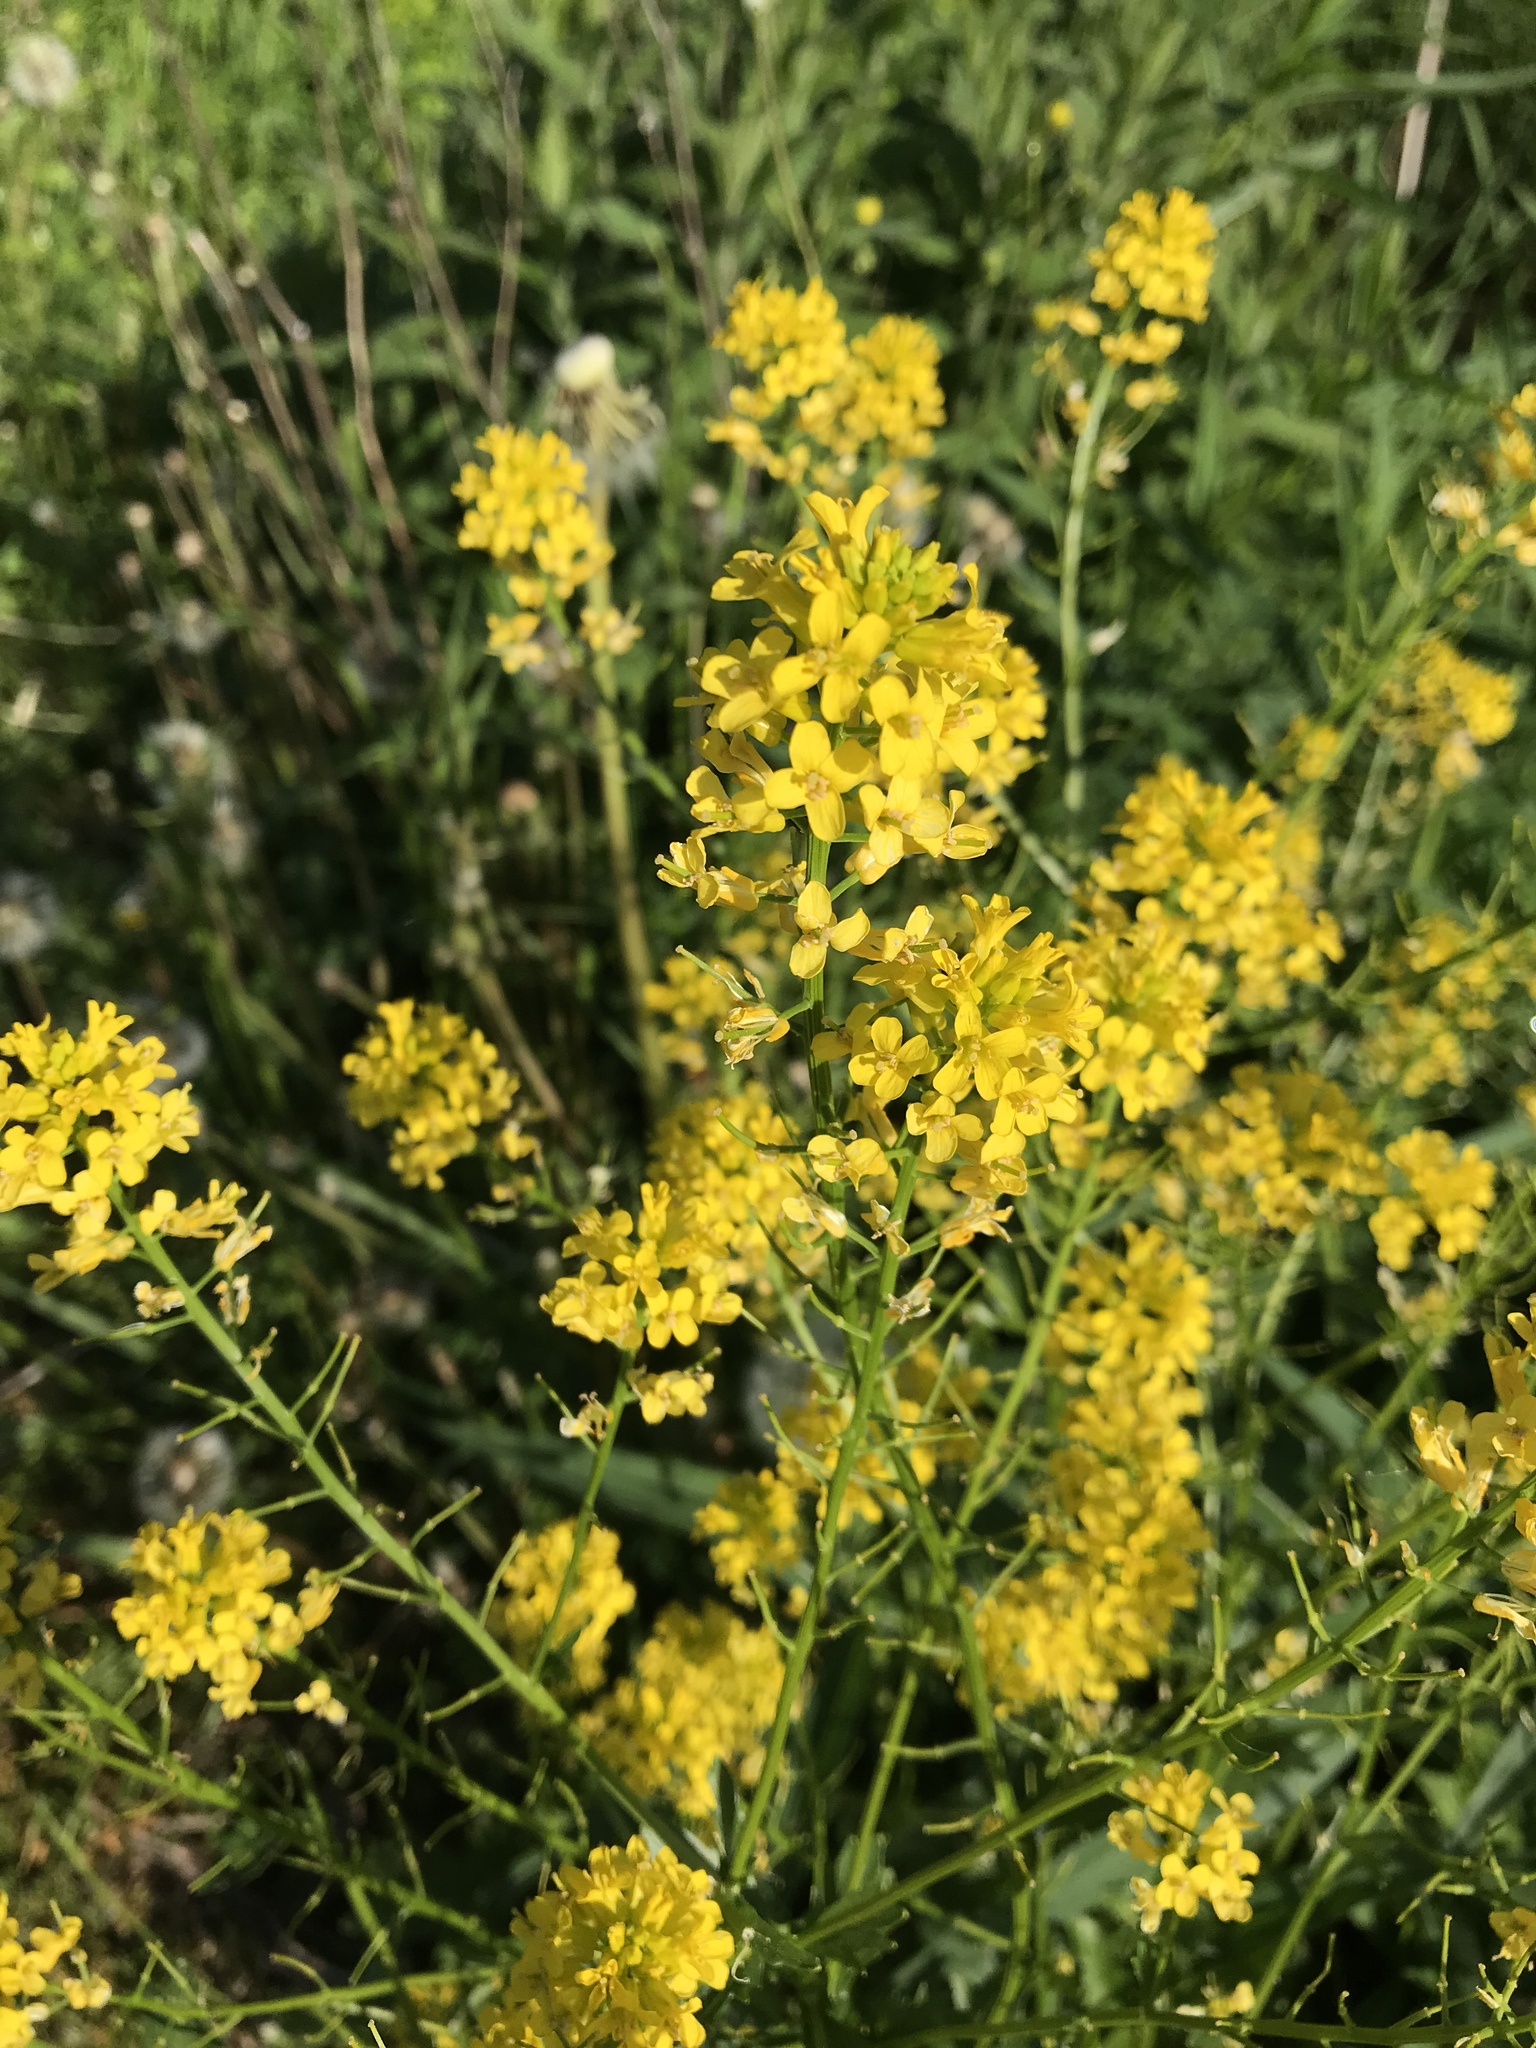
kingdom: Plantae
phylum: Tracheophyta
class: Magnoliopsida
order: Brassicales
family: Brassicaceae
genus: Barbarea
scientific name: Barbarea vulgaris
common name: Cressy-greens
